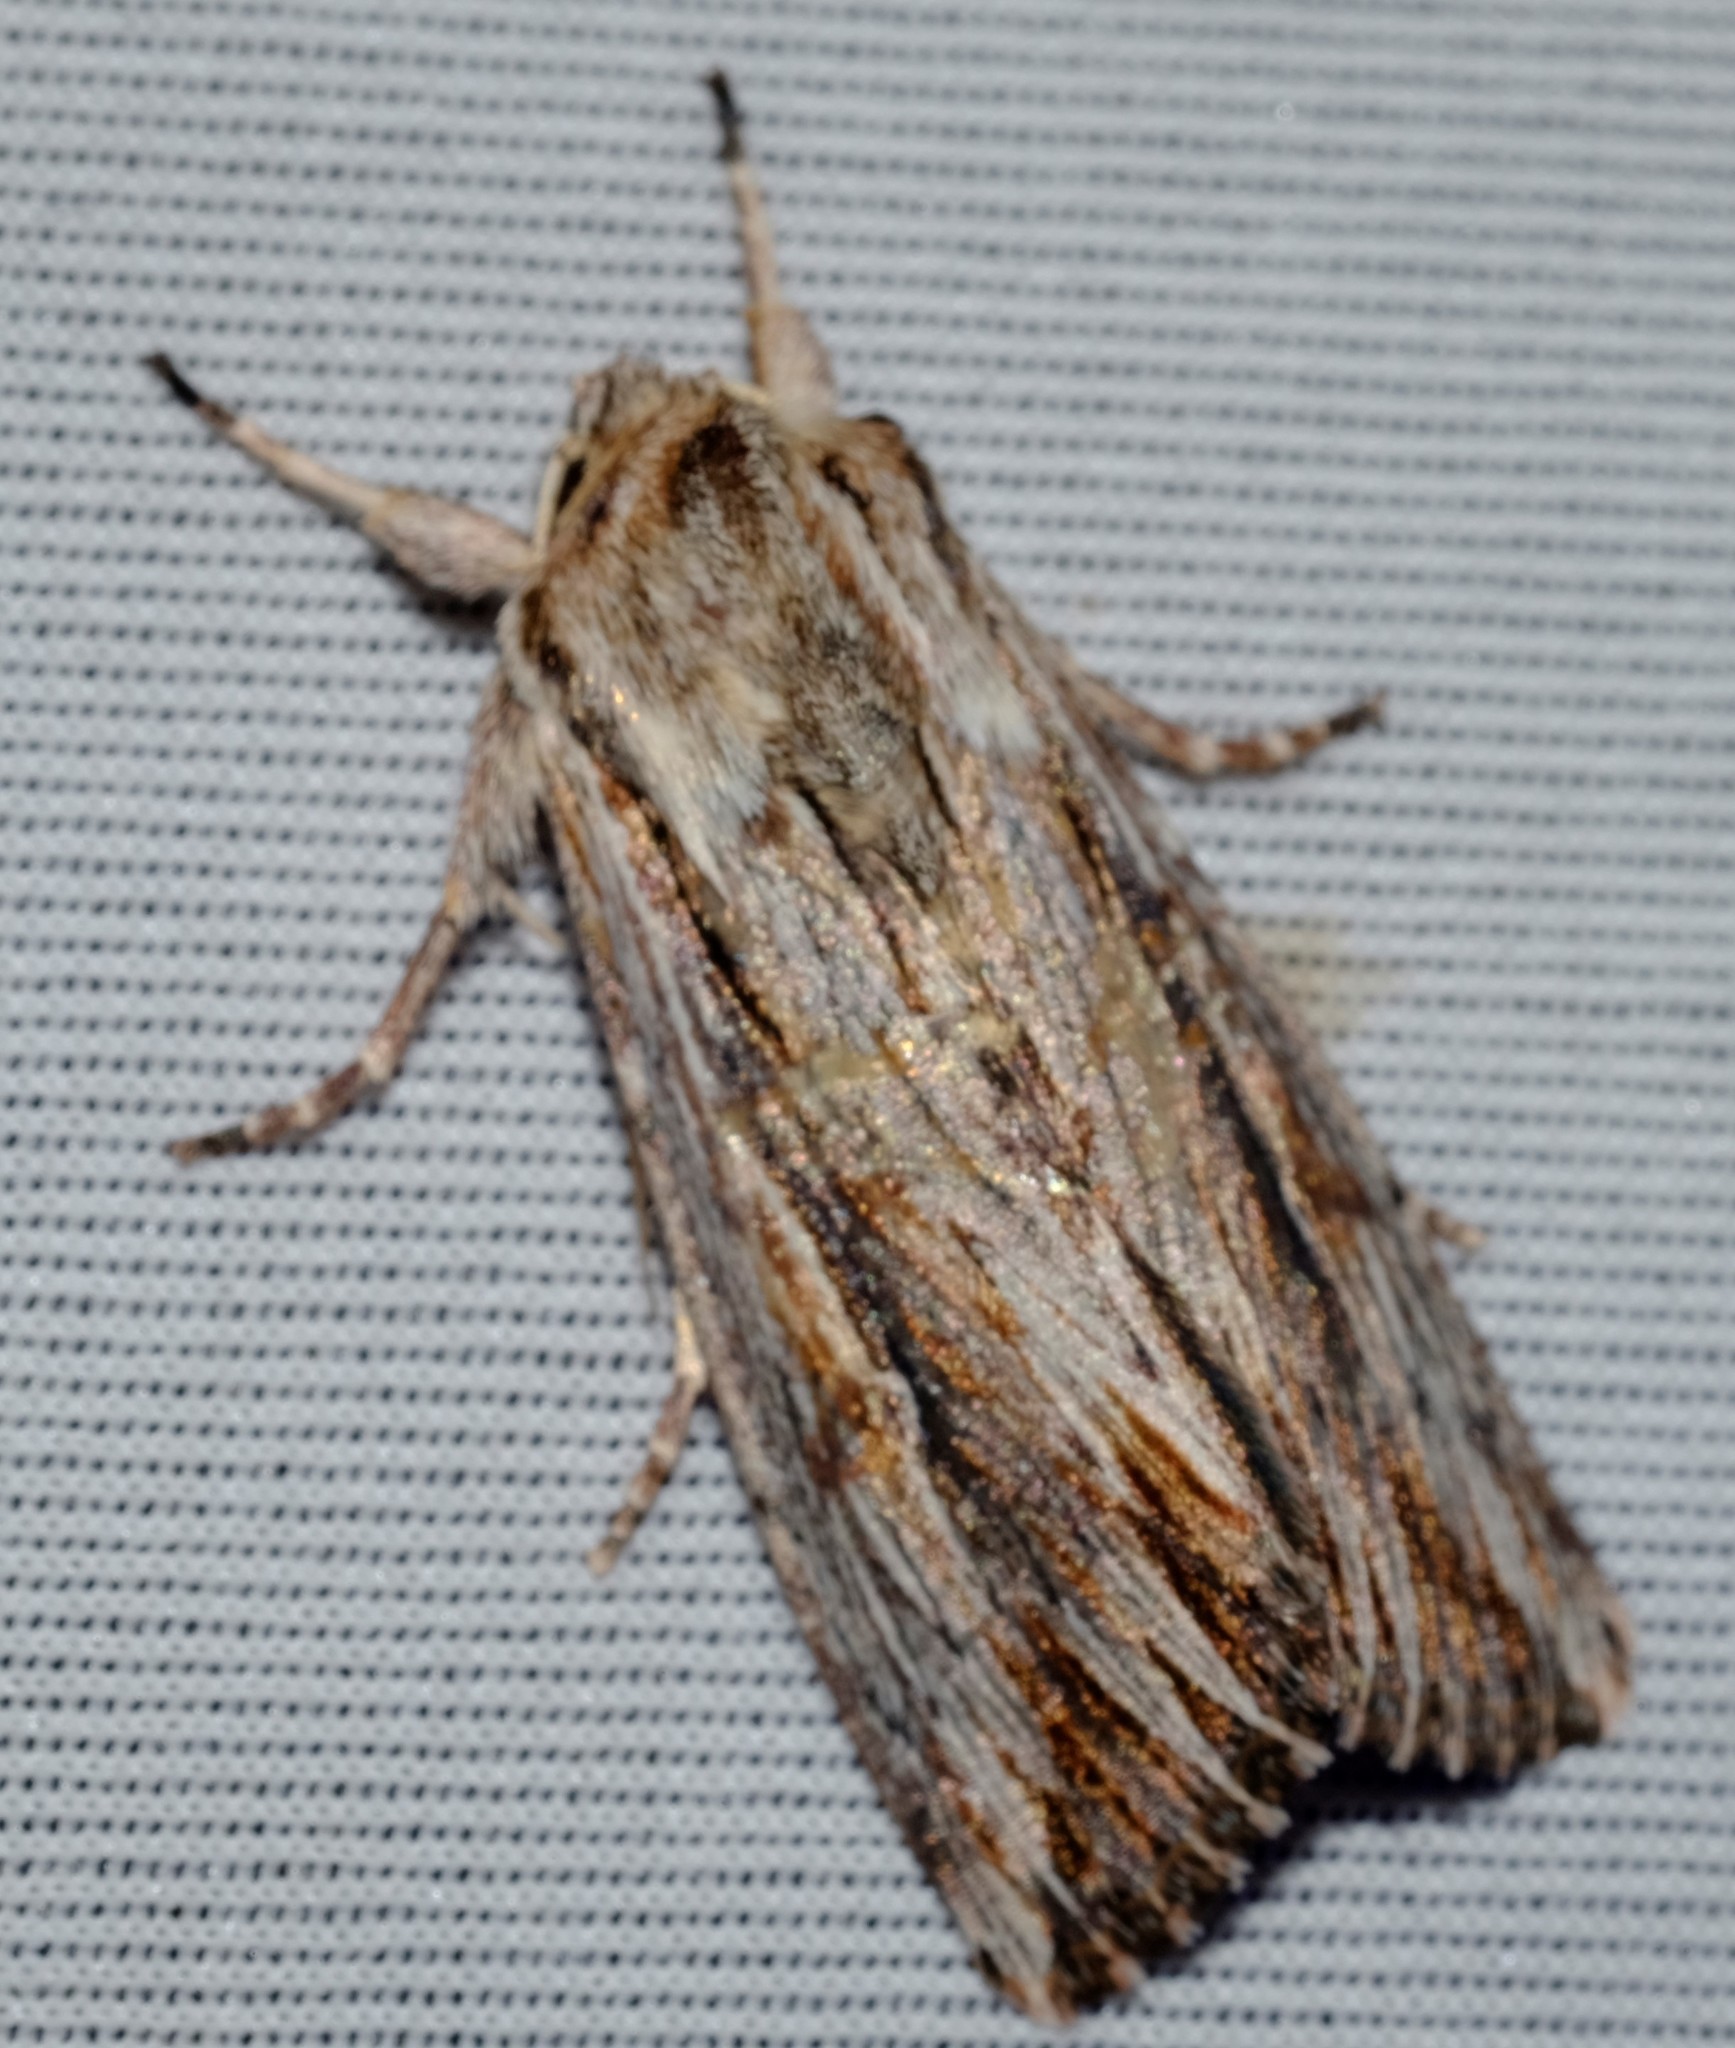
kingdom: Animalia
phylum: Arthropoda
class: Insecta
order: Lepidoptera
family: Noctuidae
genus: Persectania
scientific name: Persectania ewingii
